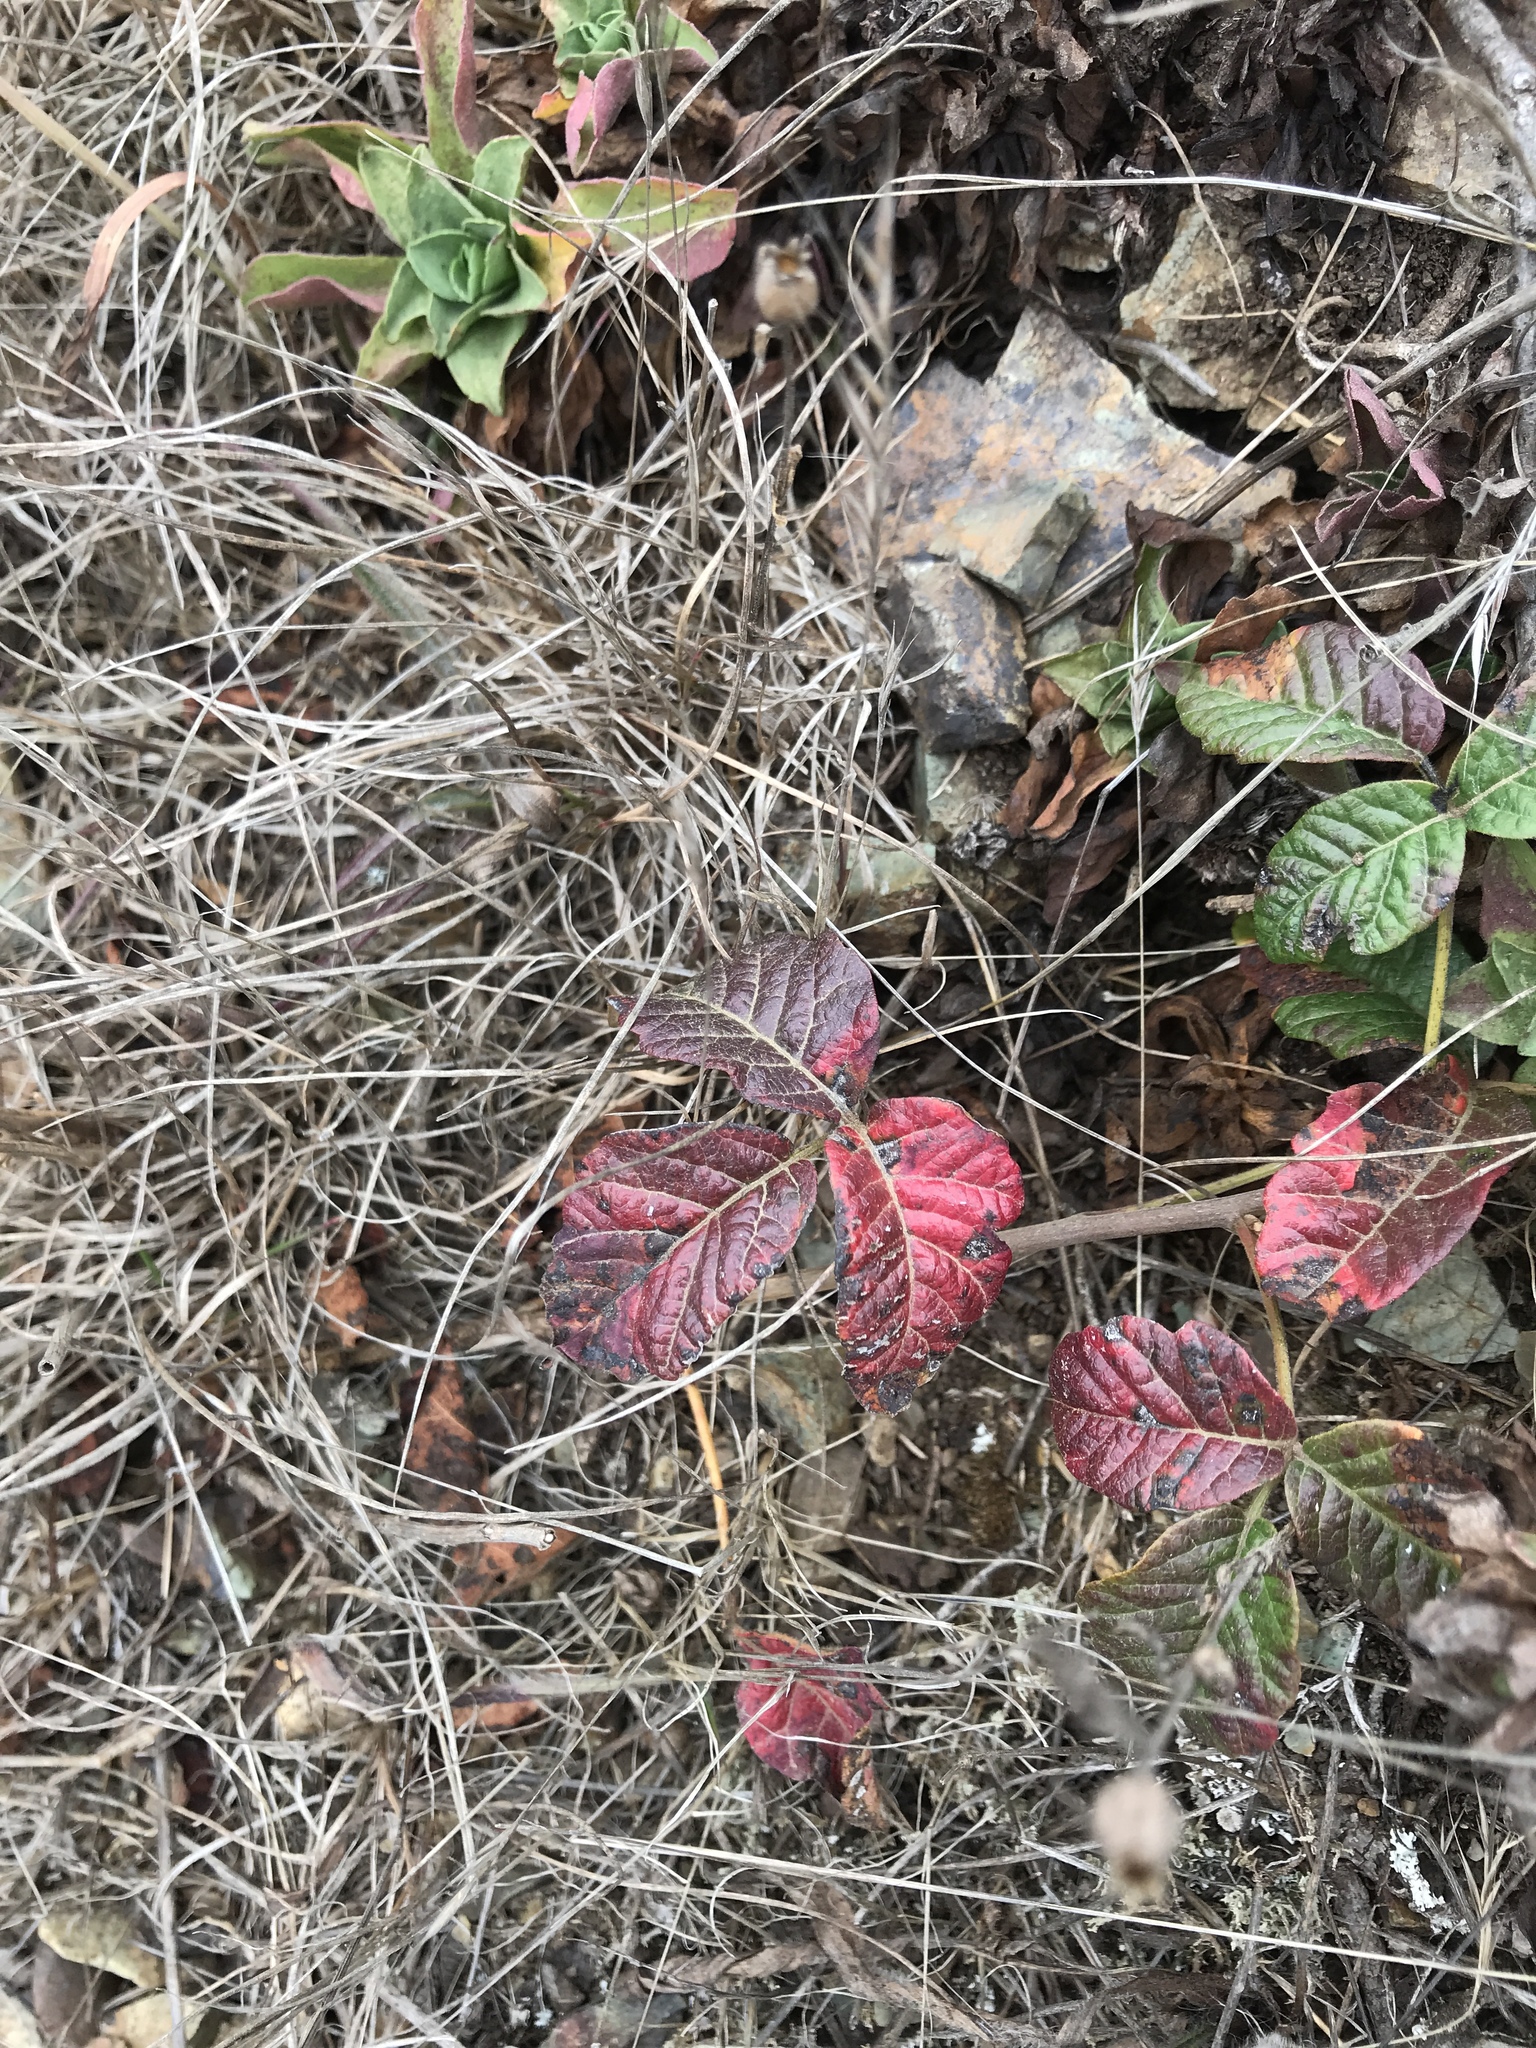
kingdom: Plantae
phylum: Tracheophyta
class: Magnoliopsida
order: Sapindales
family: Anacardiaceae
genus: Toxicodendron
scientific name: Toxicodendron diversilobum
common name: Pacific poison-oak
